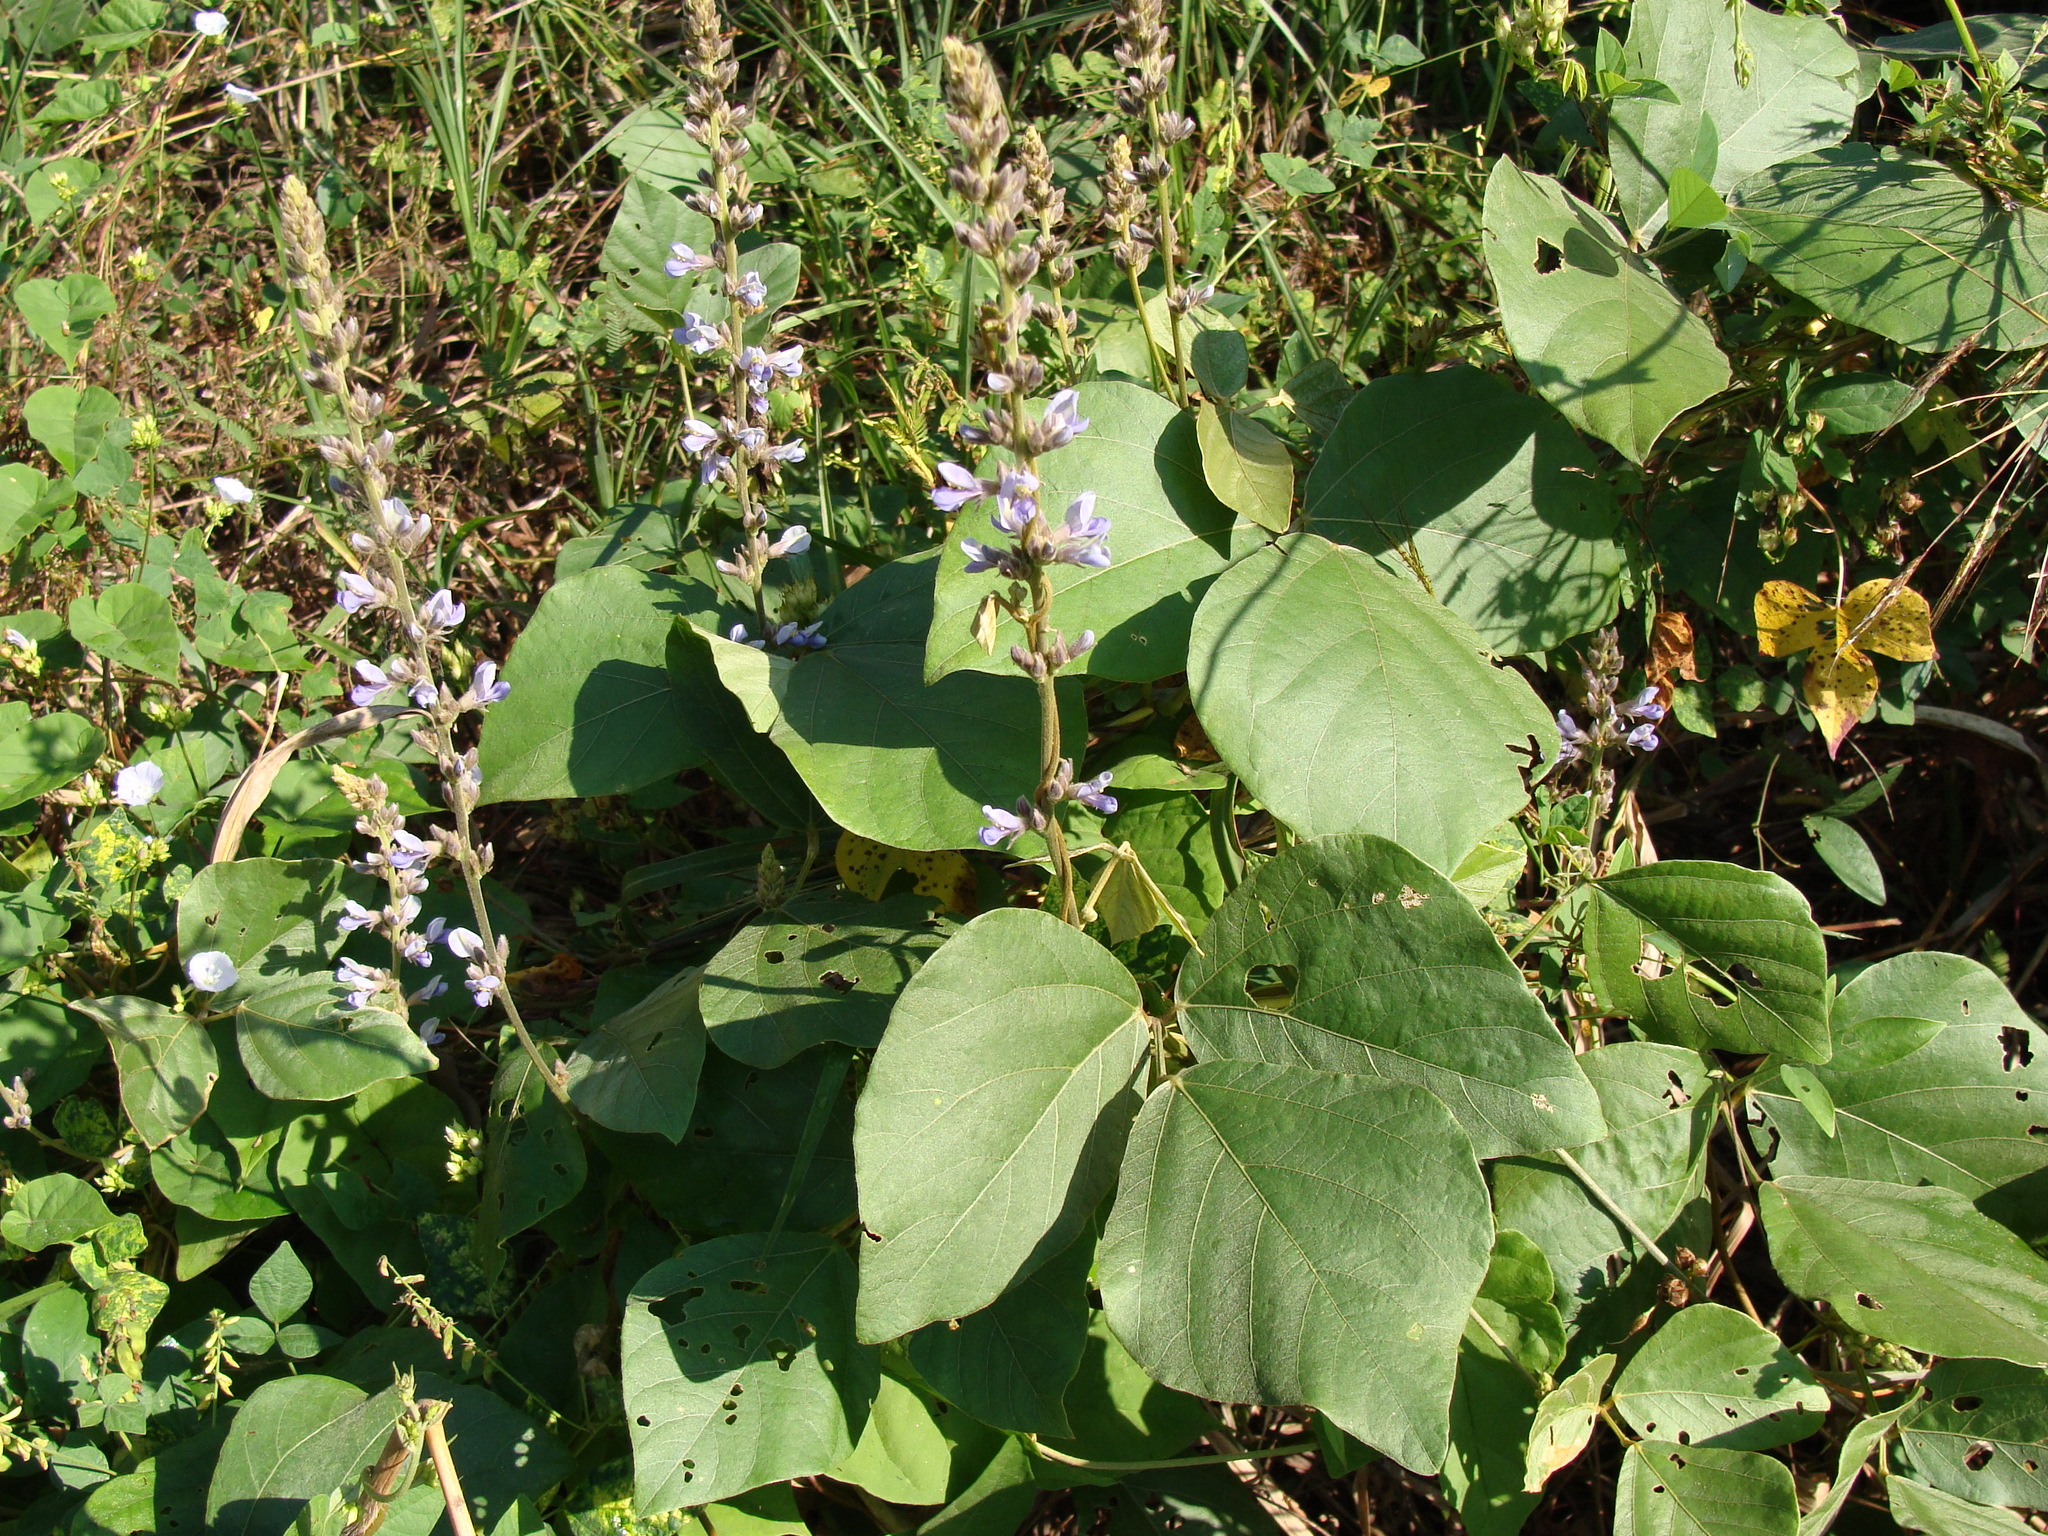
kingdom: Plantae
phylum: Tracheophyta
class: Magnoliopsida
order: Fabales
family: Fabaceae
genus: Calopogonium
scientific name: Calopogonium caeruleum
